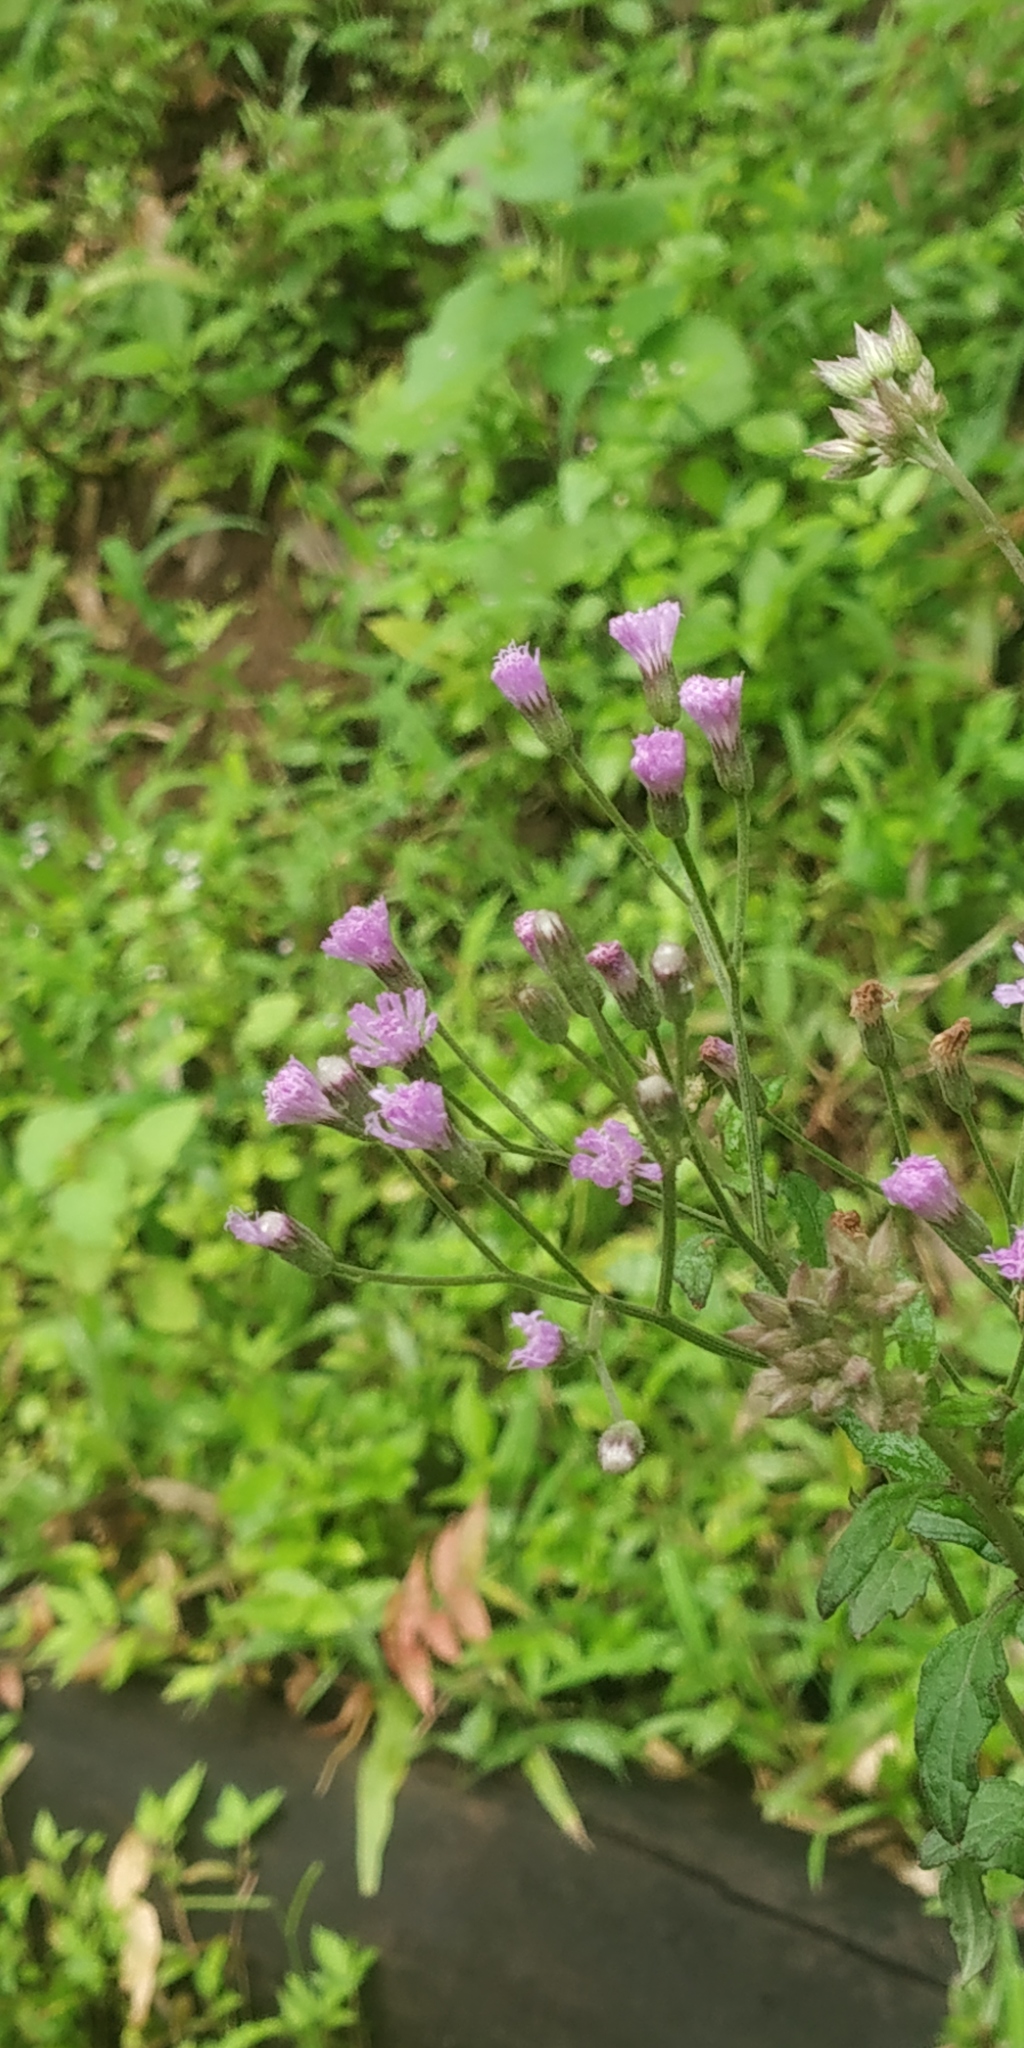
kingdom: Plantae
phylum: Tracheophyta
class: Magnoliopsida
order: Asterales
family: Asteraceae
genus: Senecio
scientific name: Senecio bombayensis
